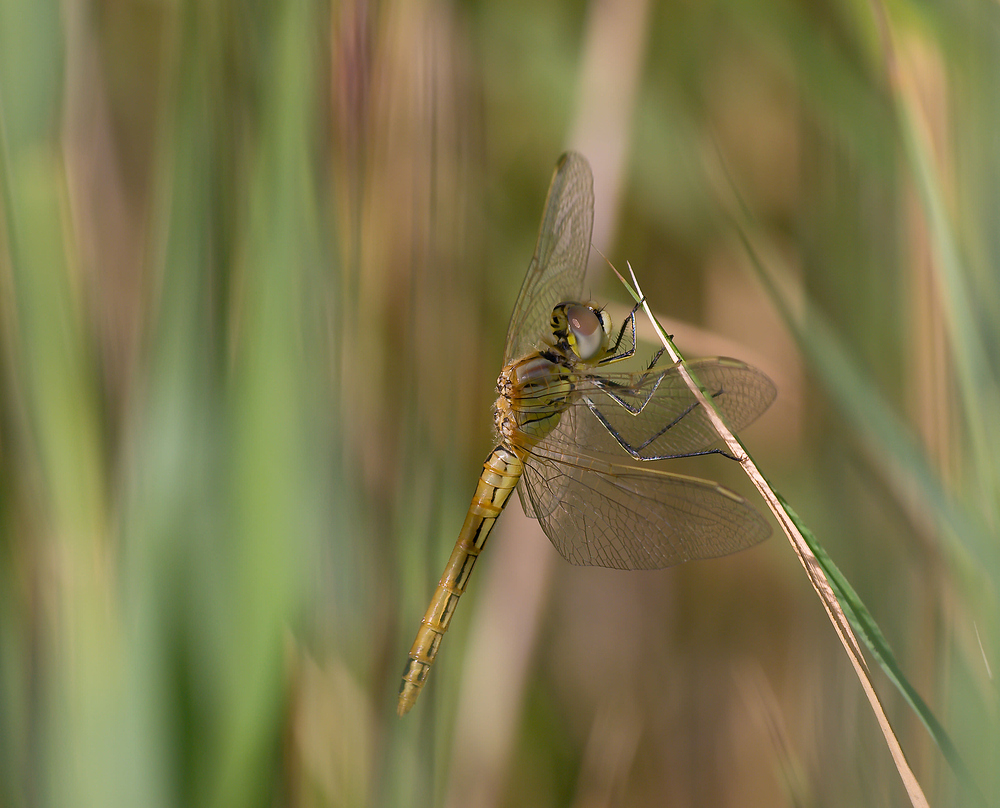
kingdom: Animalia
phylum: Arthropoda
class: Insecta
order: Odonata
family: Libellulidae
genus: Sympetrum
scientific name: Sympetrum fonscolombii
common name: Red-veined darter
